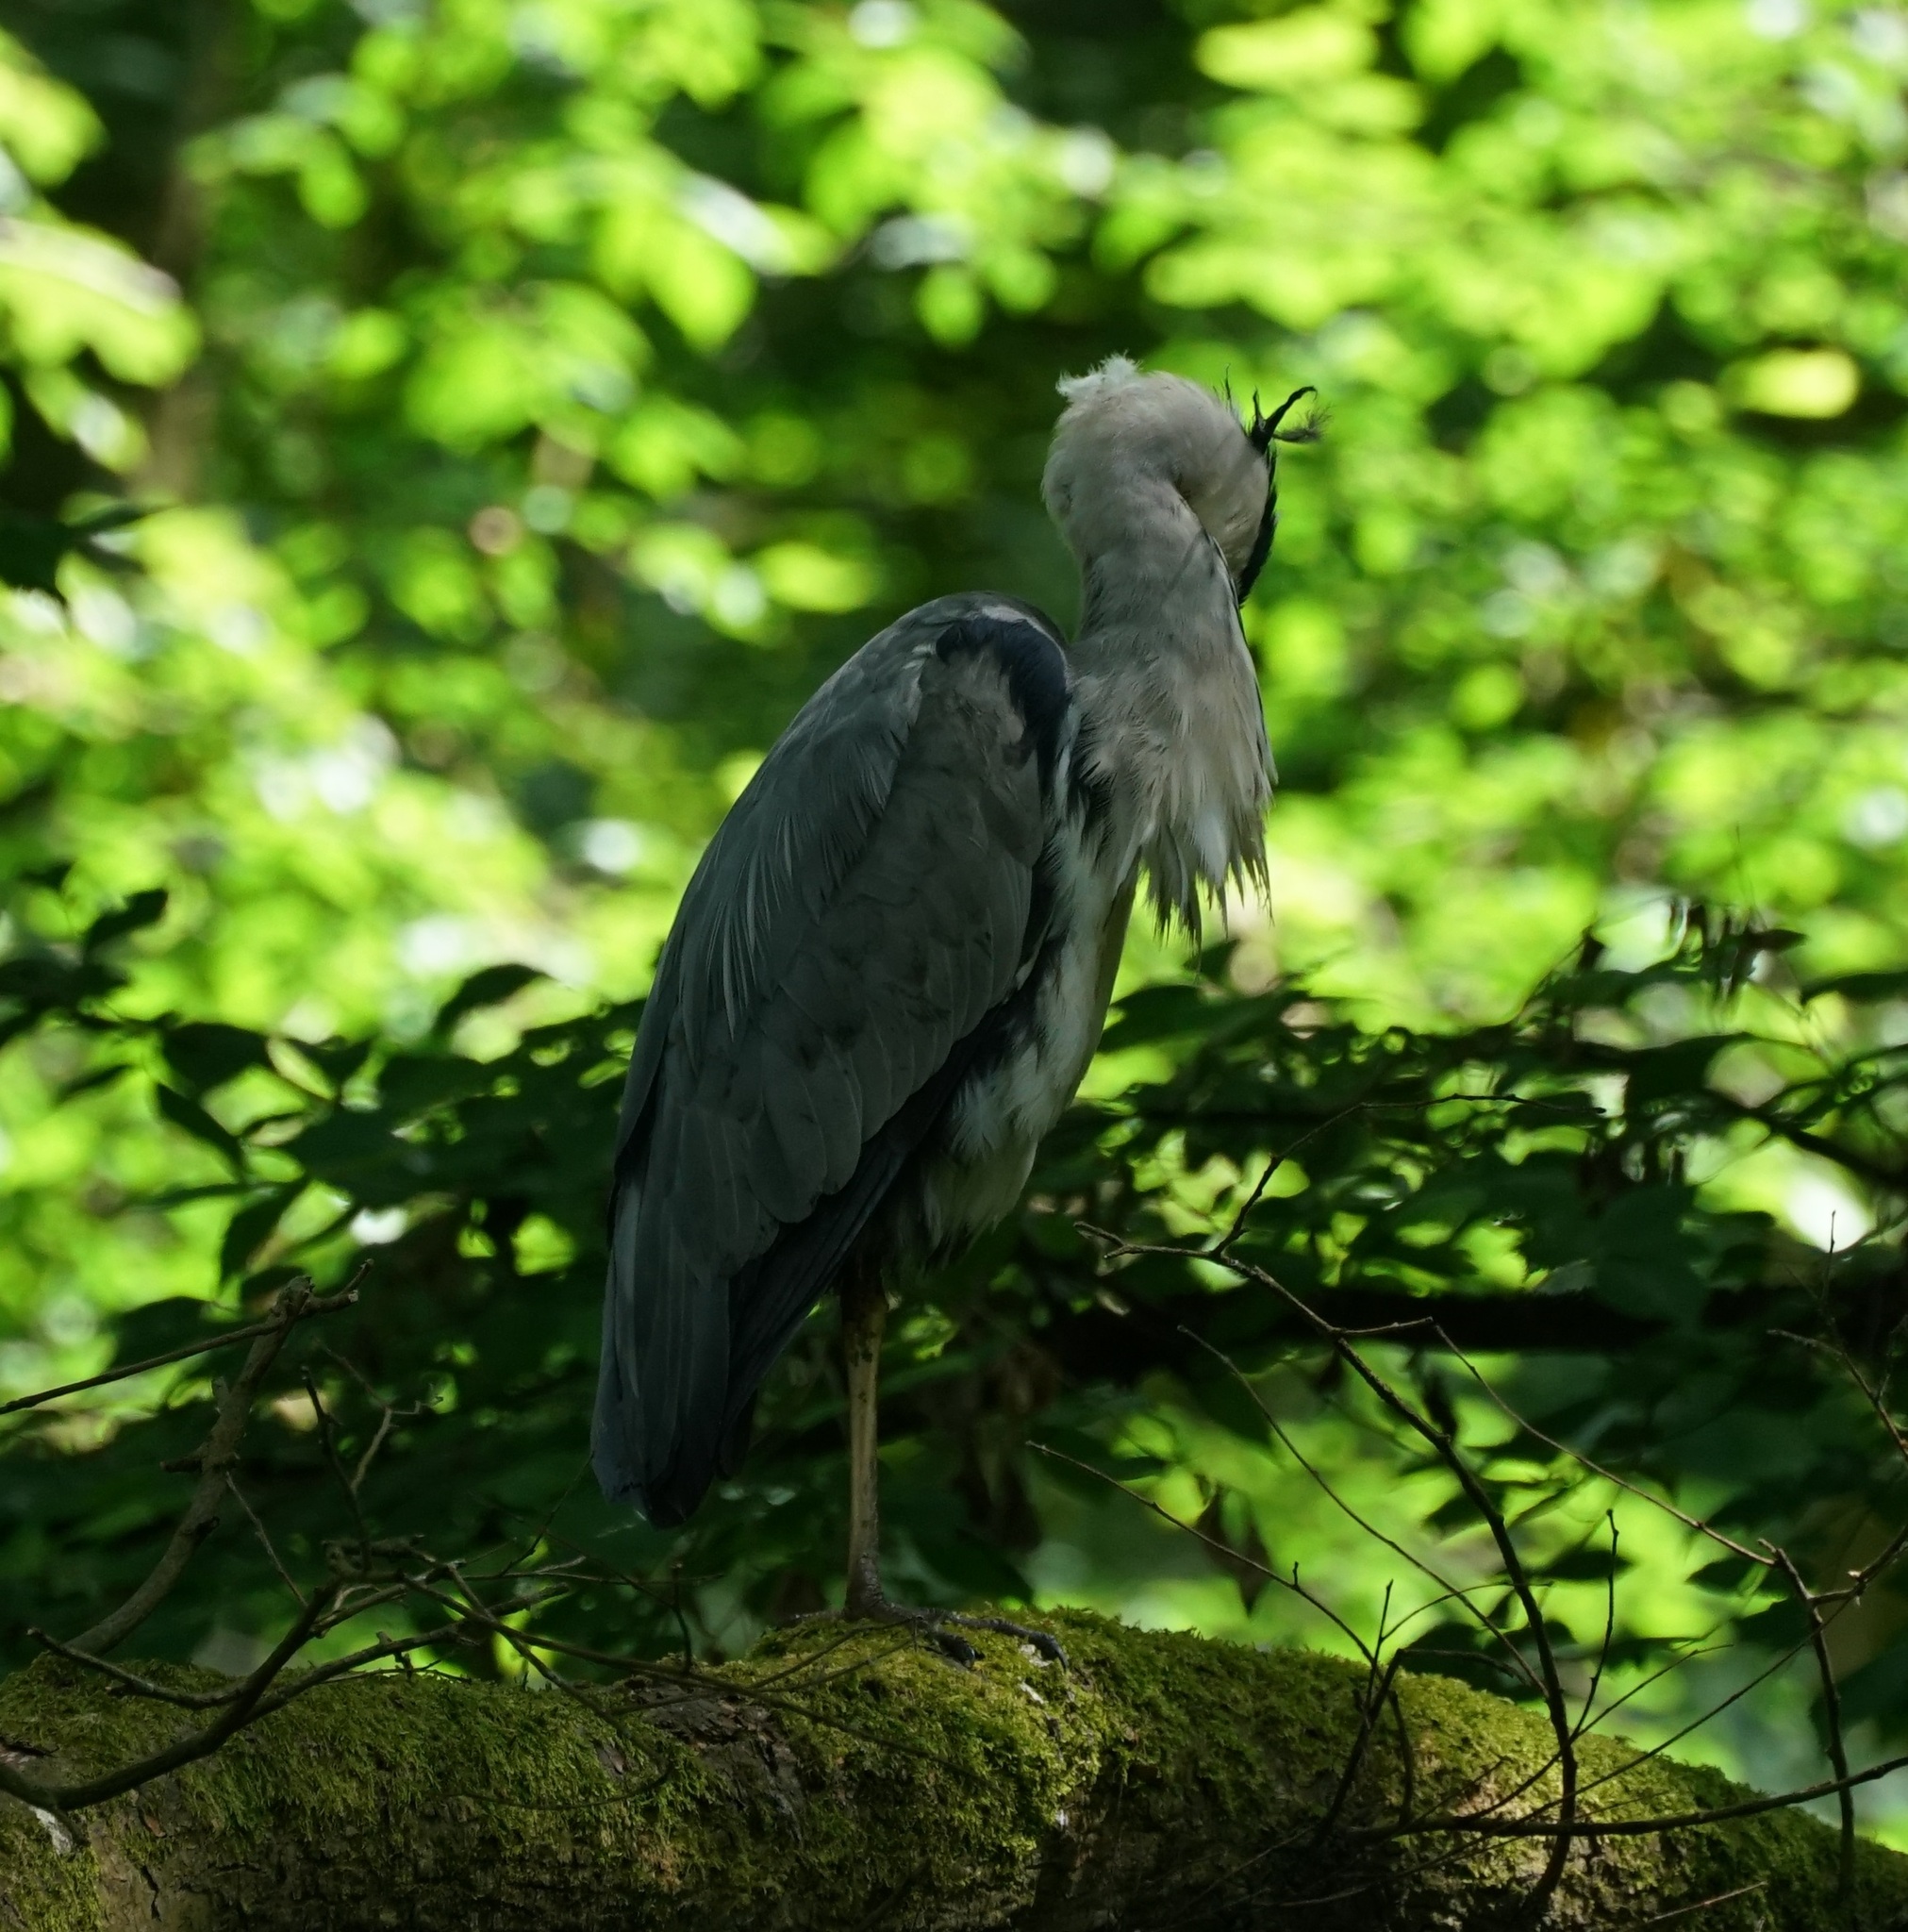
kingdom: Animalia
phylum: Chordata
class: Aves
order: Pelecaniformes
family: Ardeidae
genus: Ardea
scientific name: Ardea cinerea
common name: Grey heron
